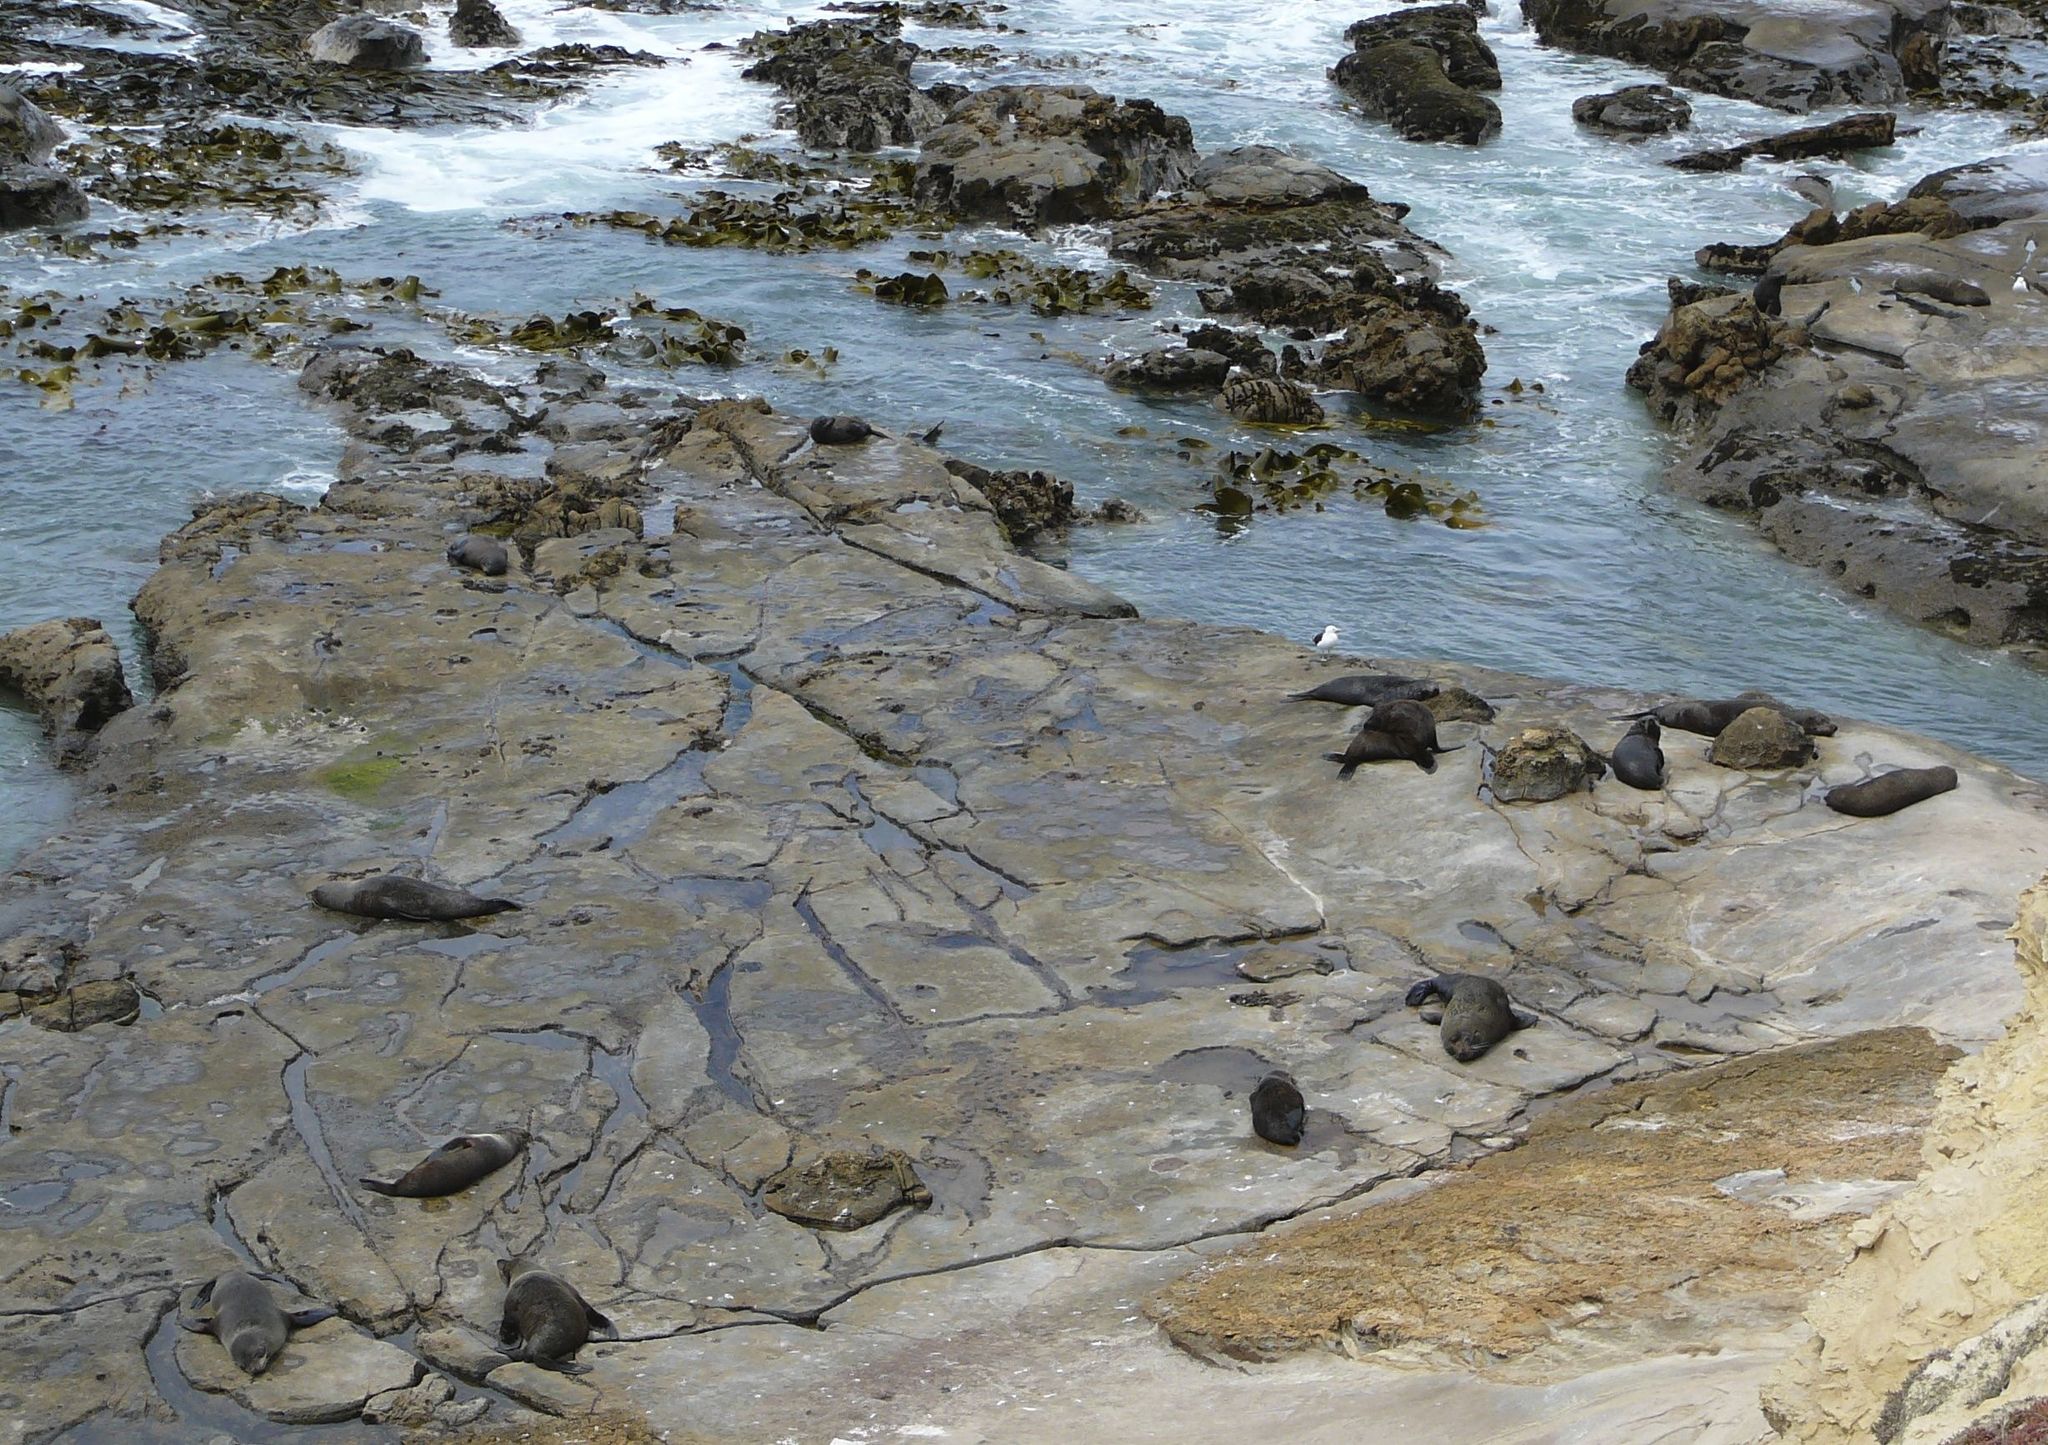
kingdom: Animalia
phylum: Chordata
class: Mammalia
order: Carnivora
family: Otariidae
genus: Arctocephalus
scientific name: Arctocephalus forsteri
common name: New zealand fur seal
